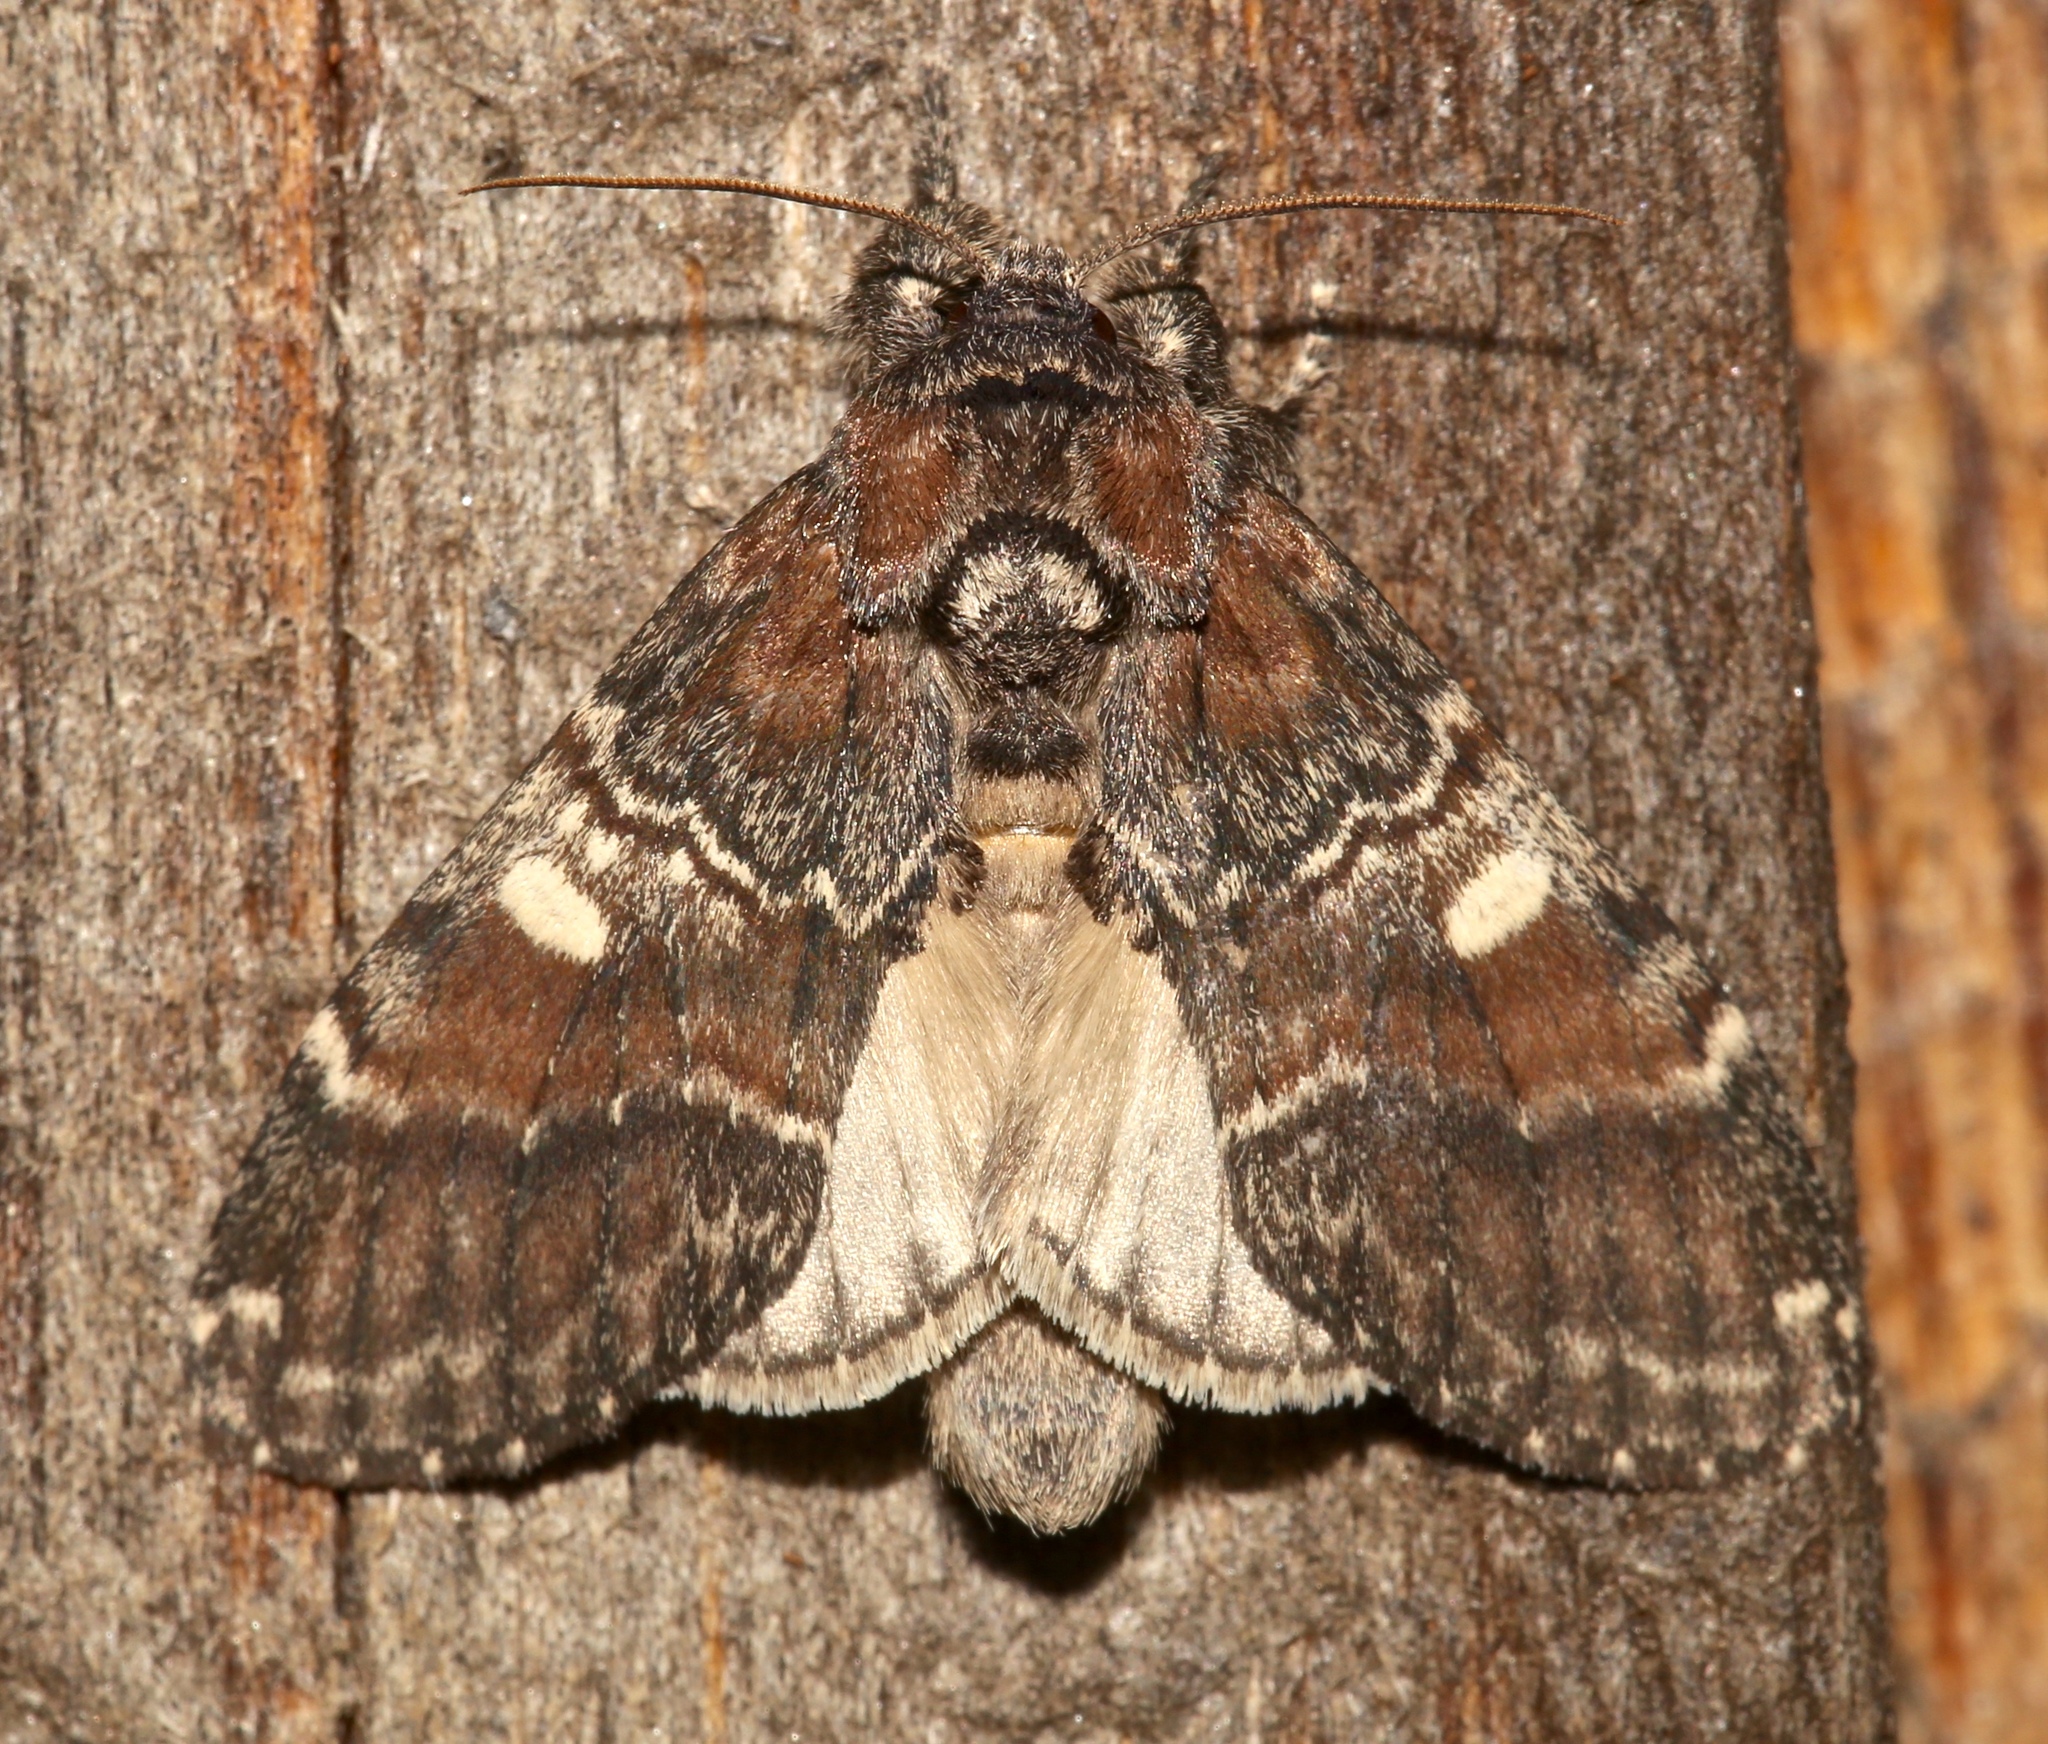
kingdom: Animalia
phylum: Arthropoda
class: Insecta
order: Lepidoptera
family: Notodontidae
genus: Peridea
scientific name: Peridea ferruginea
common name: Chocolate prominent
